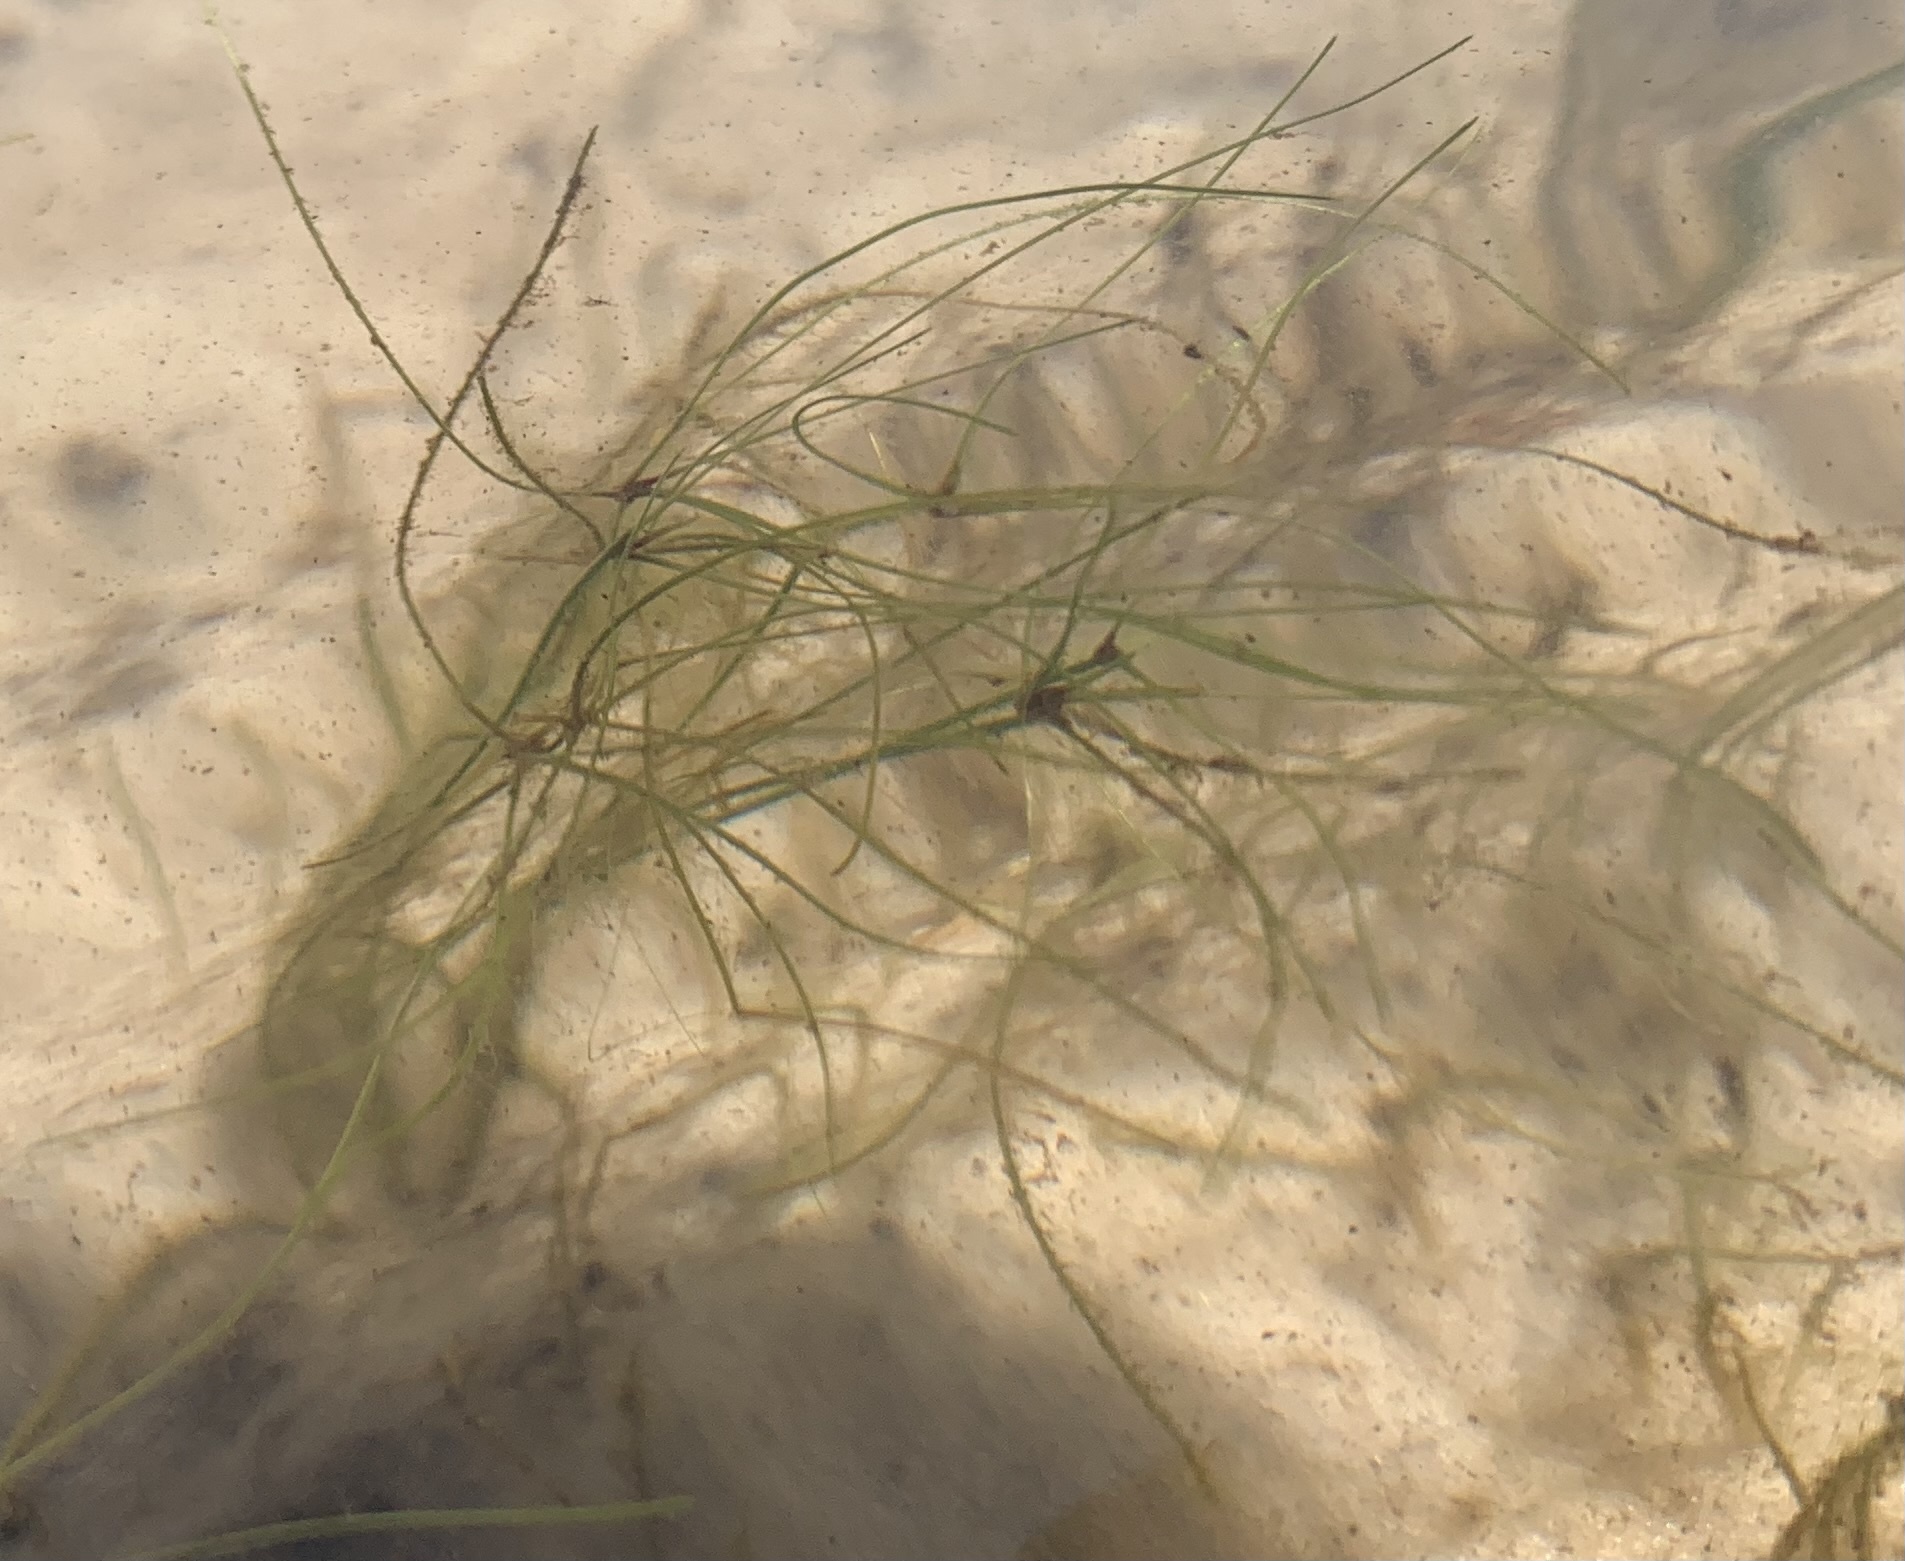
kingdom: Plantae
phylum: Tracheophyta
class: Liliopsida
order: Alismatales
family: Ruppiaceae
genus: Ruppia
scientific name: Ruppia maritima
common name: Beaked tasselweed
